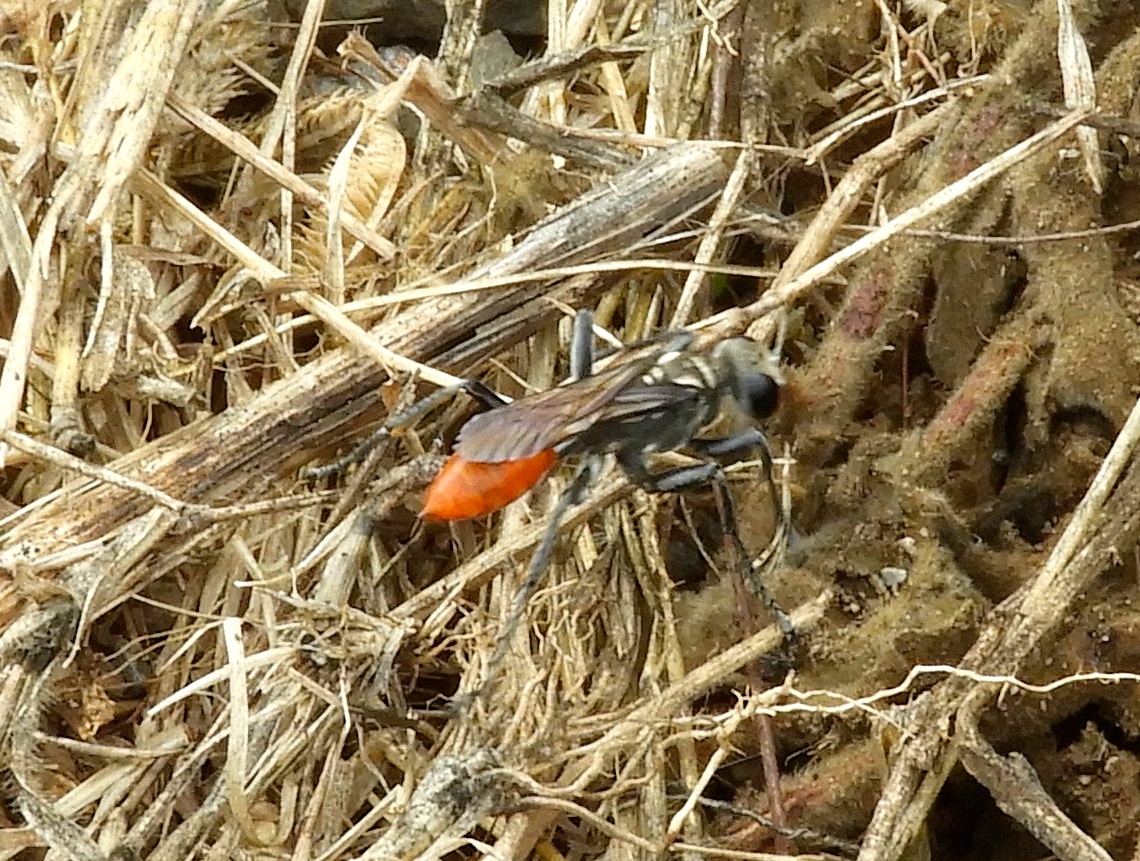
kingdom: Animalia
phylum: Arthropoda
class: Insecta
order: Hymenoptera
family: Sphecidae
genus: Prionyx
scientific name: Prionyx
